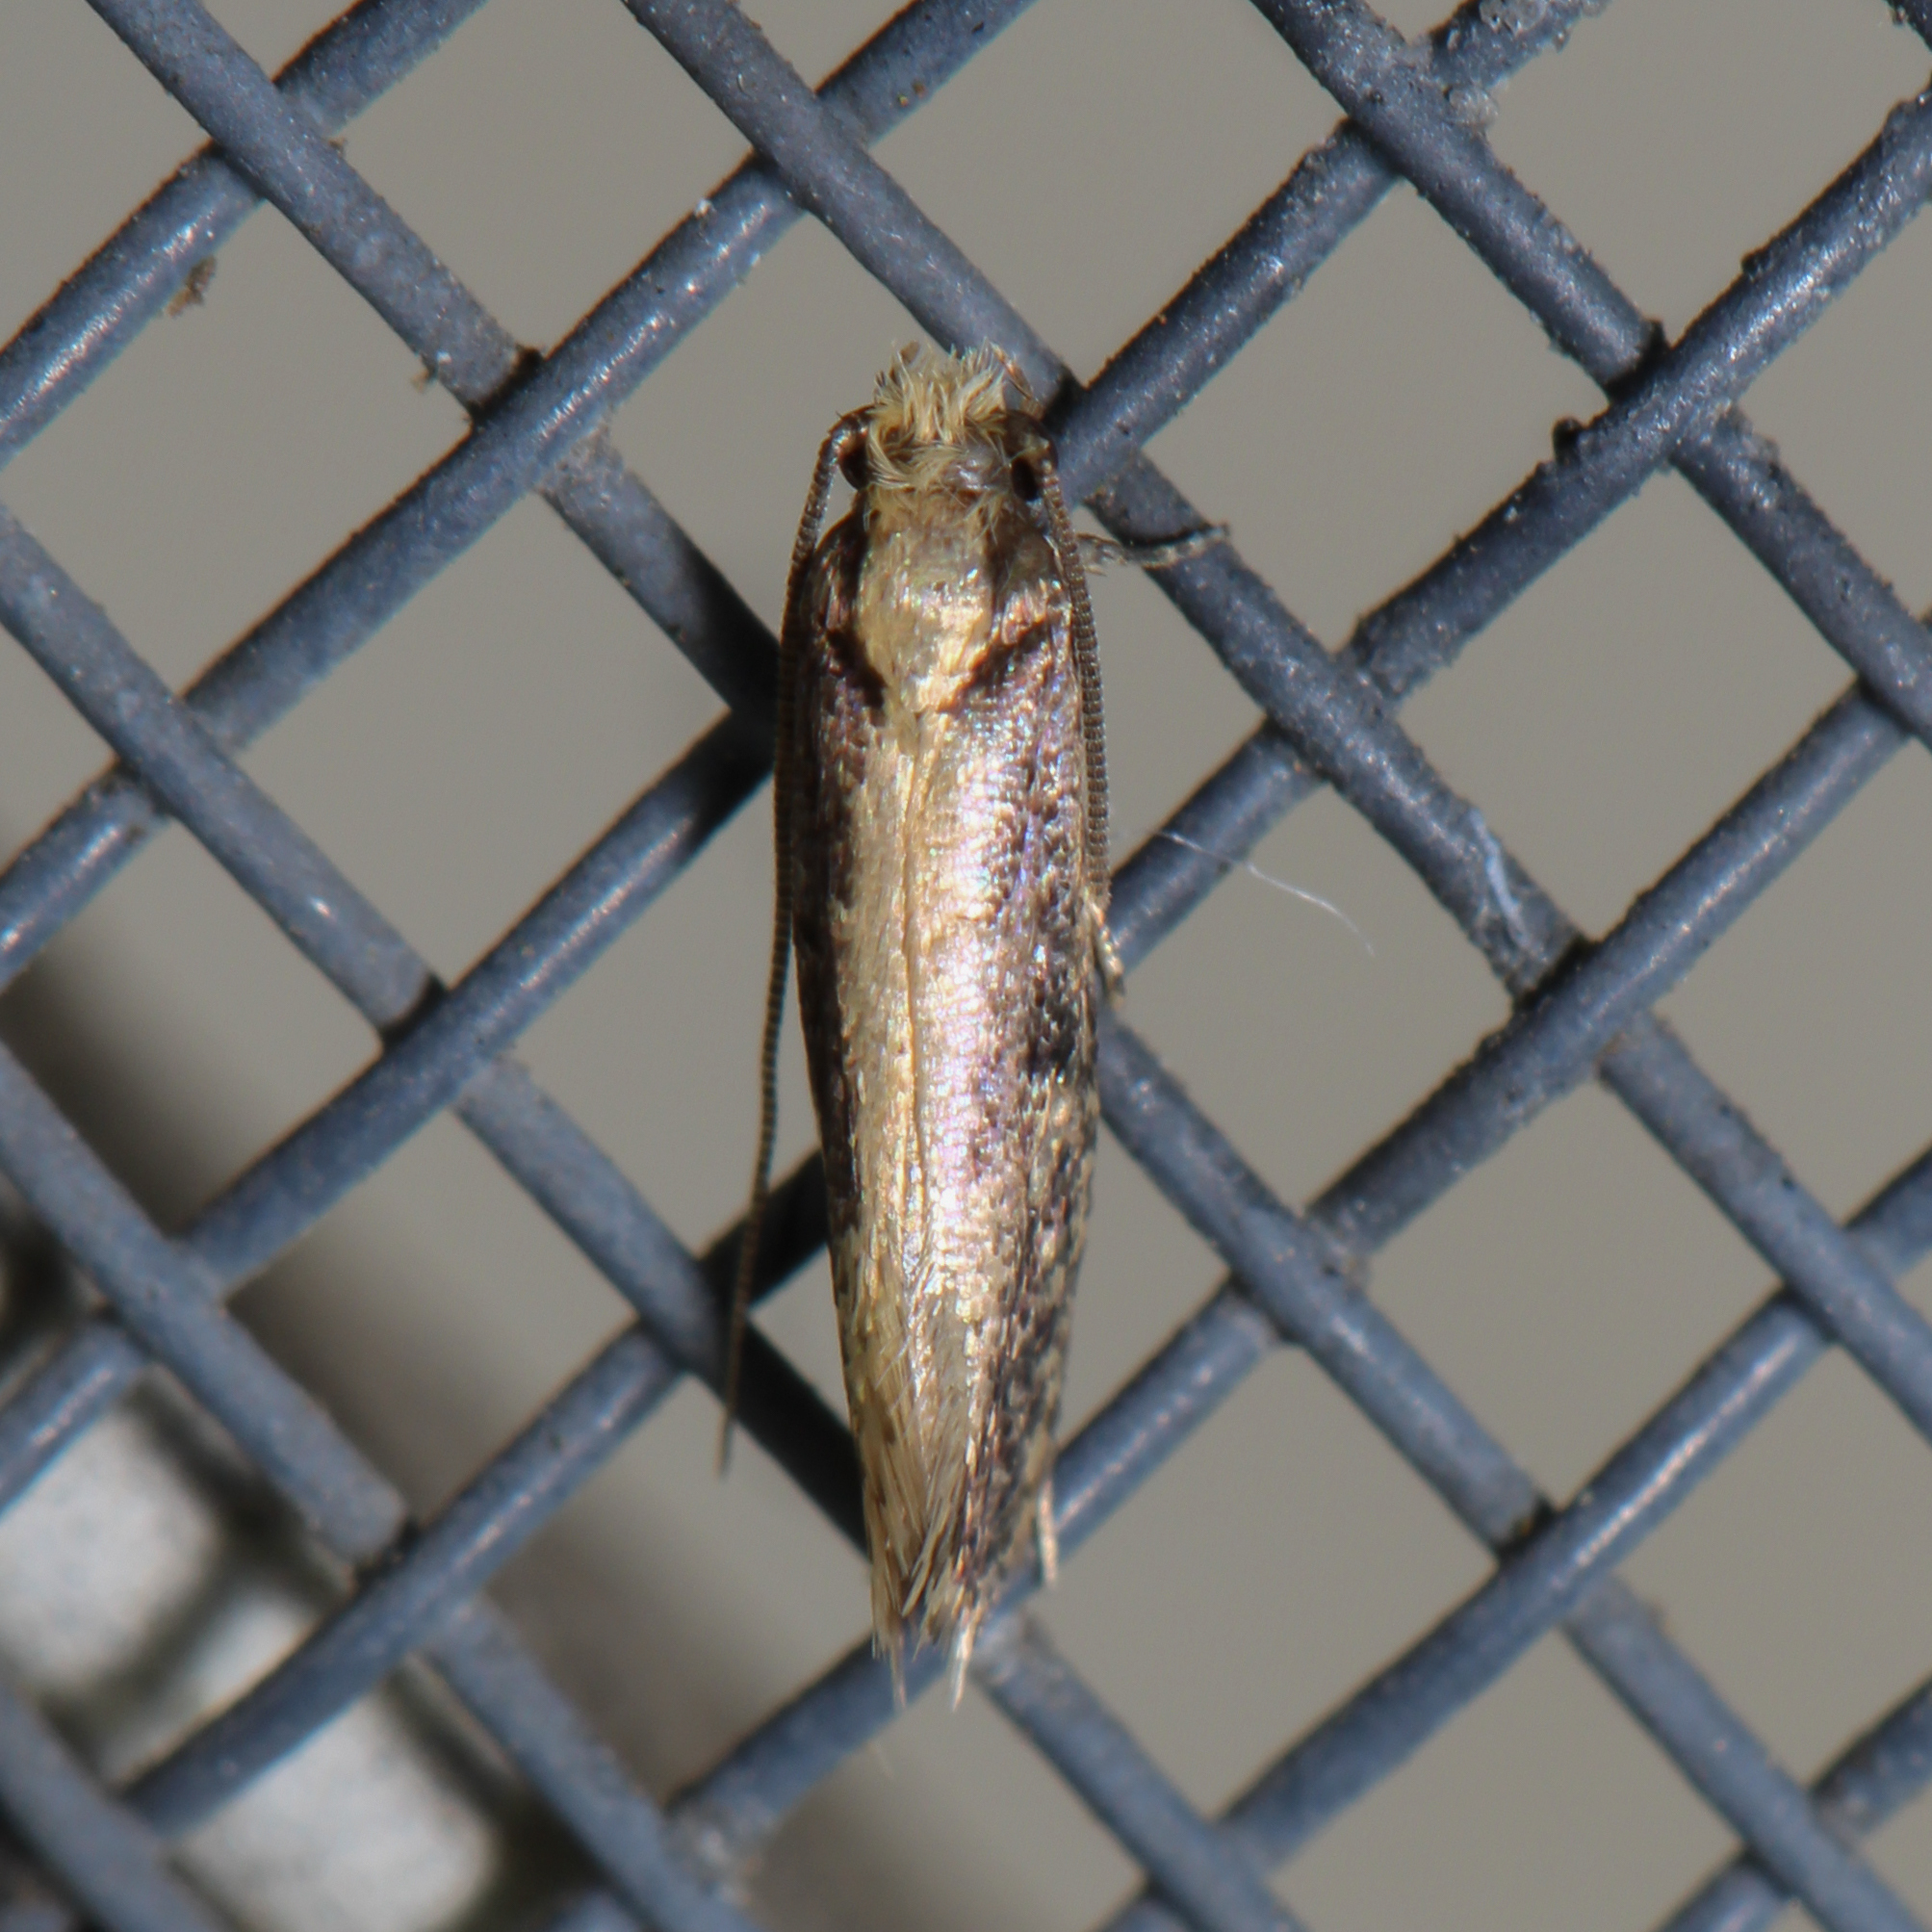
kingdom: Animalia
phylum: Arthropoda
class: Insecta
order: Lepidoptera
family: Tineidae
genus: Monopis
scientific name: Monopis crocicapitella
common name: Moth
